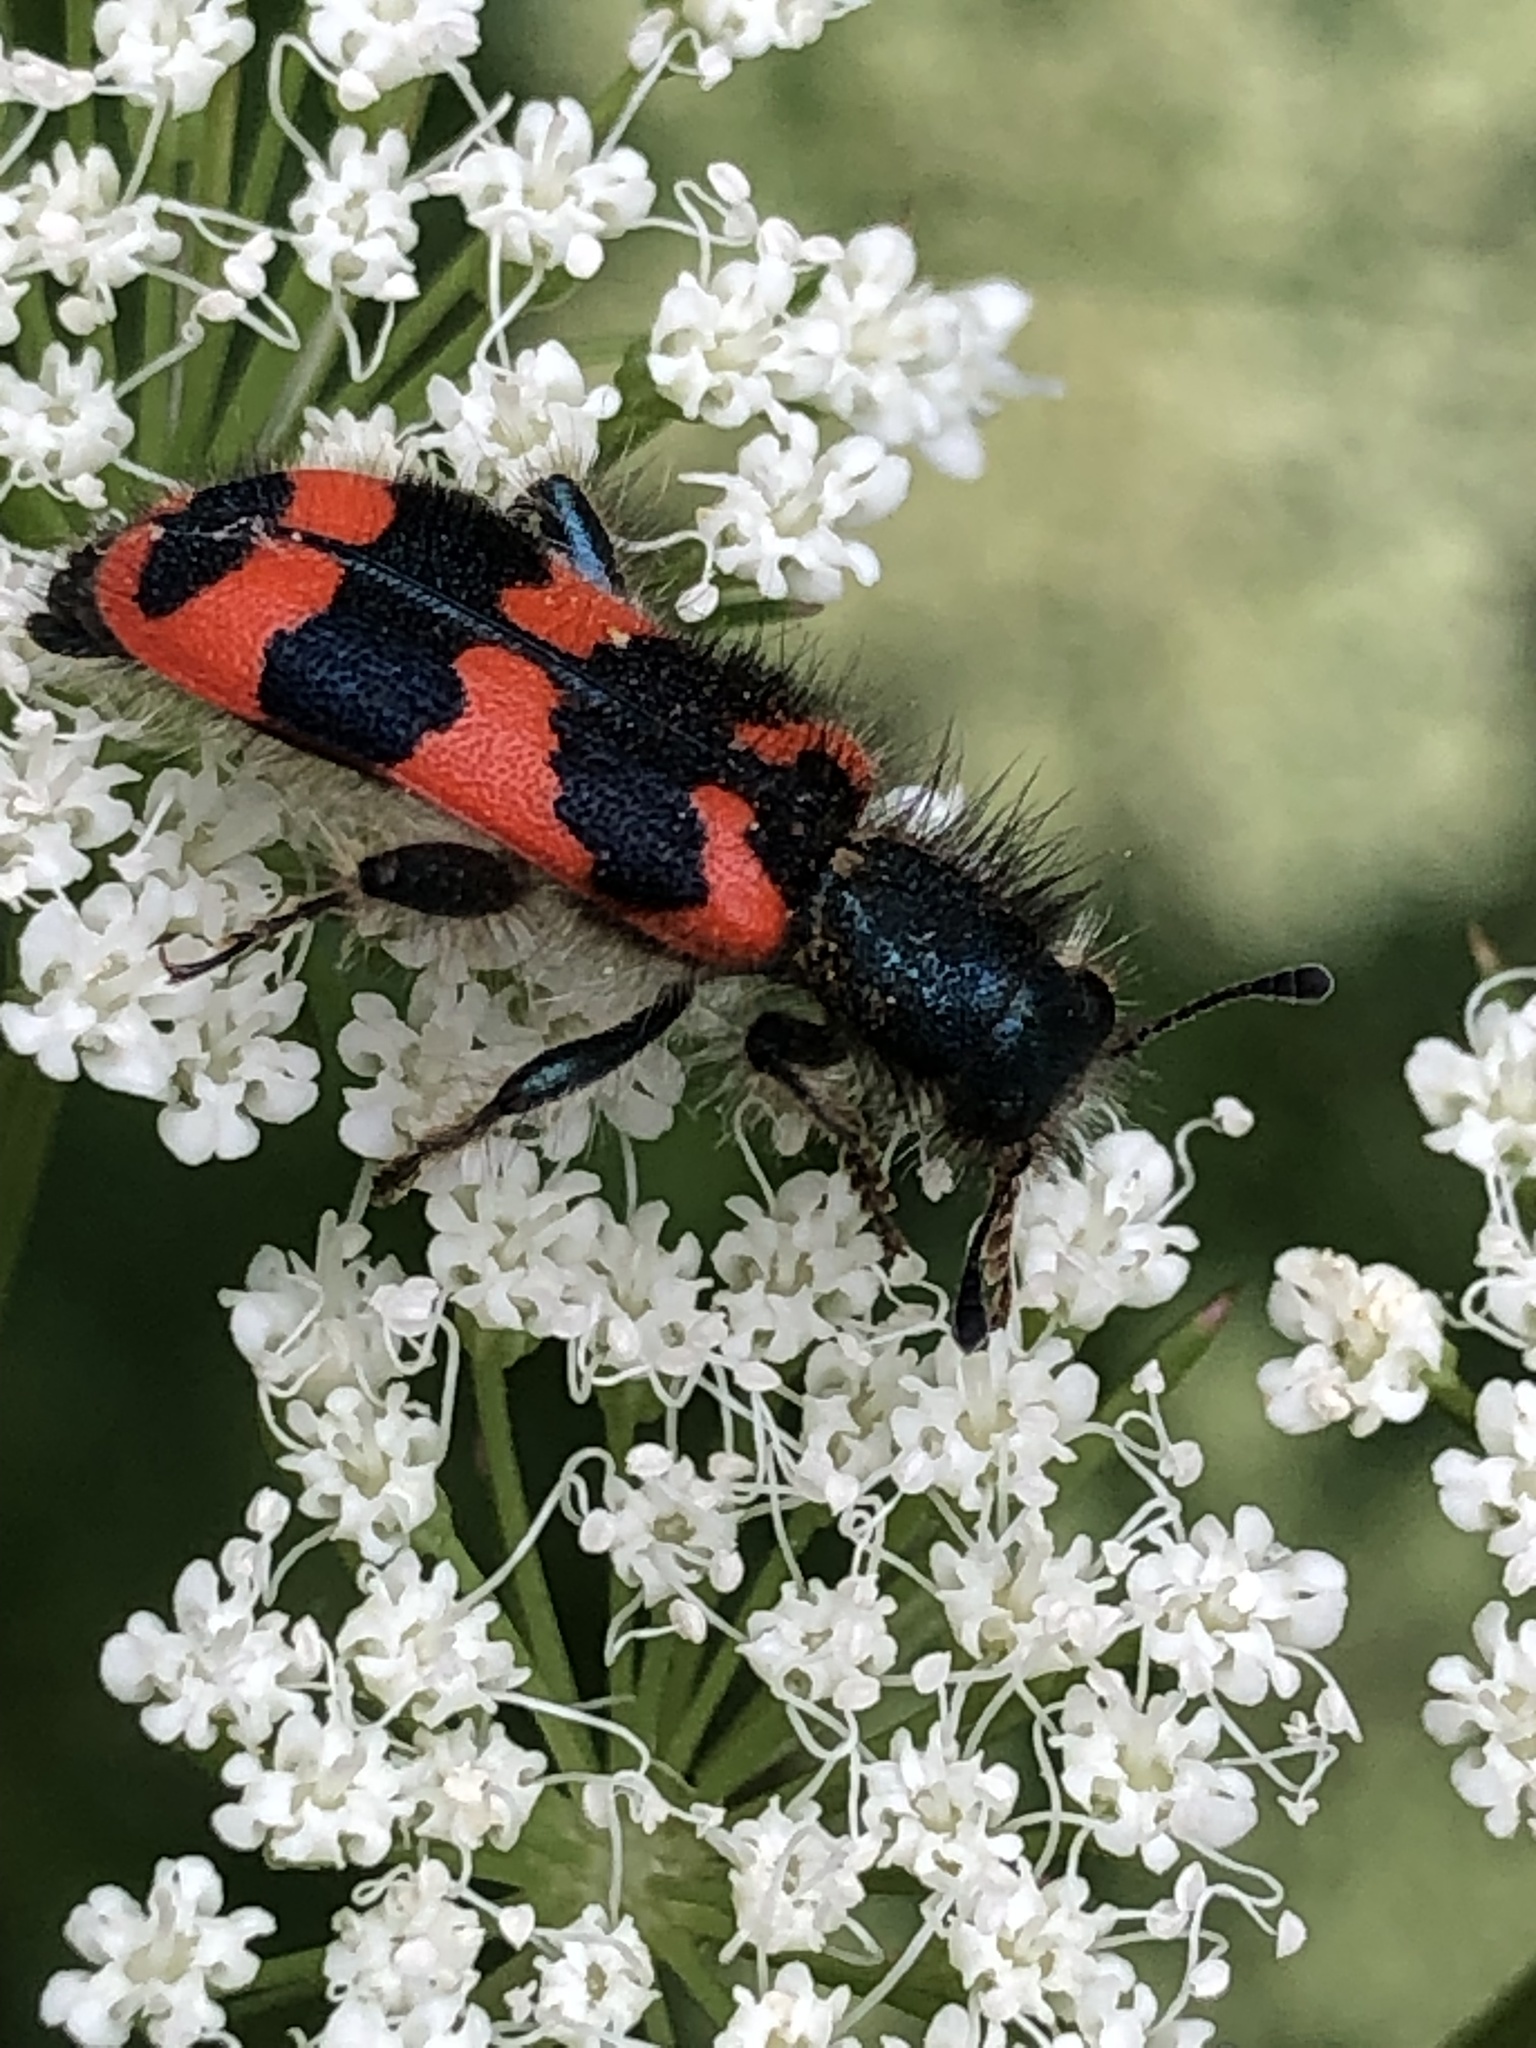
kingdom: Animalia
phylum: Arthropoda
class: Insecta
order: Coleoptera
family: Cleridae
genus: Trichodes
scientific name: Trichodes alvearius
